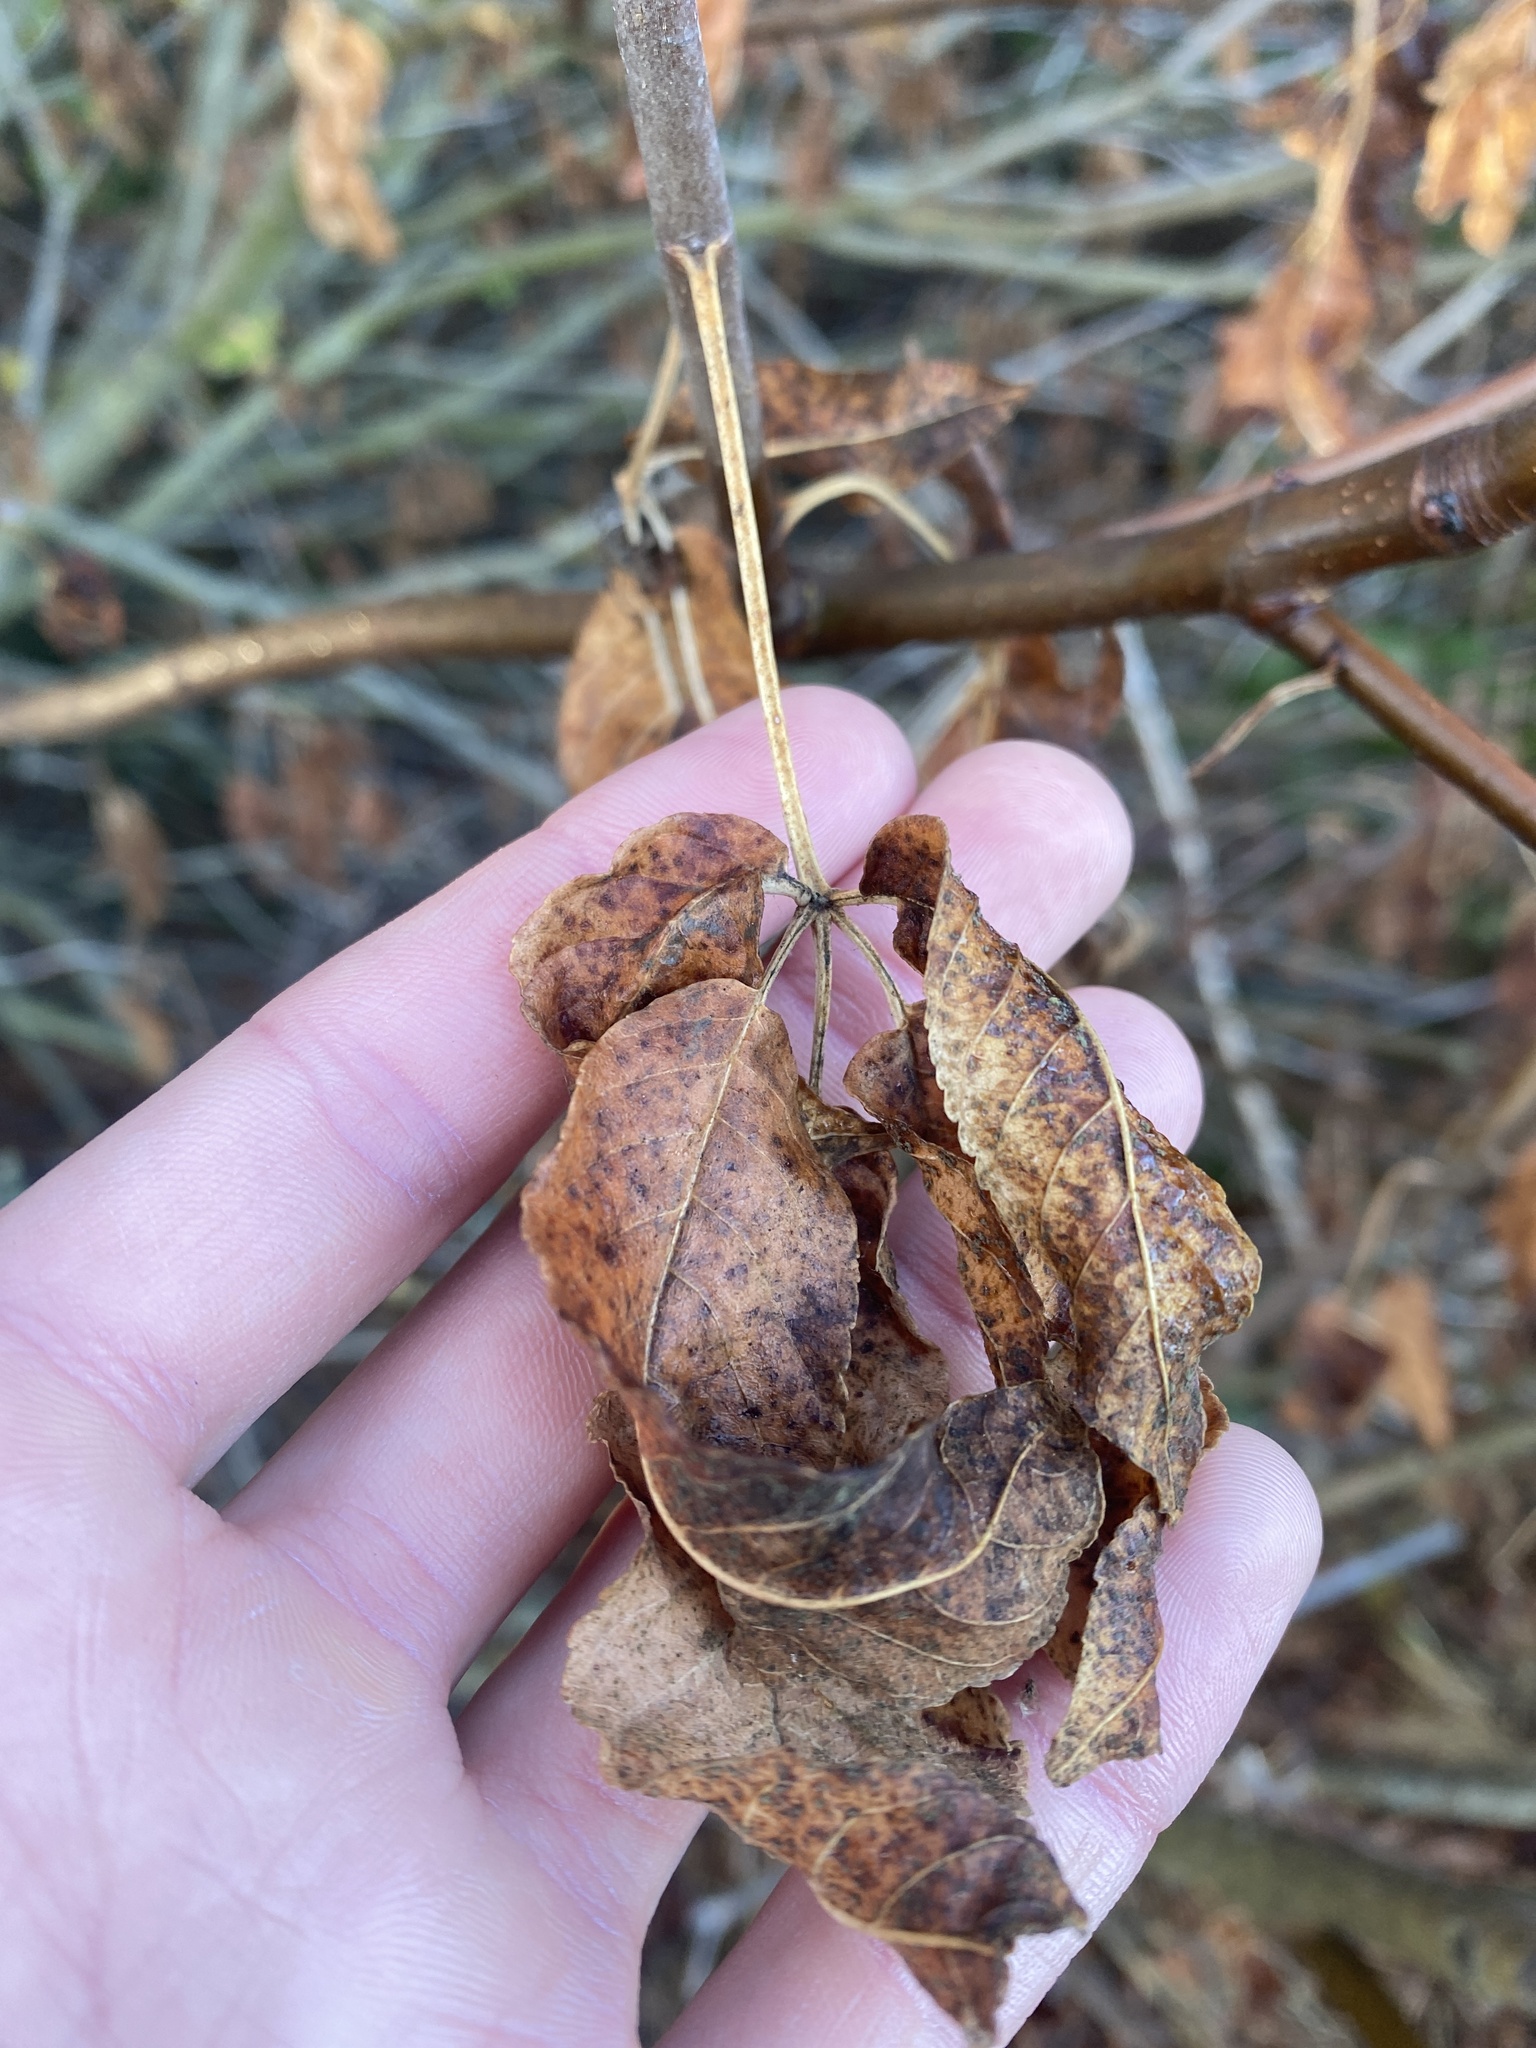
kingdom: Plantae
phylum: Tracheophyta
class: Magnoliopsida
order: Sapindales
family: Sapindaceae
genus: Aesculus
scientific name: Aesculus californica
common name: California buckeye
